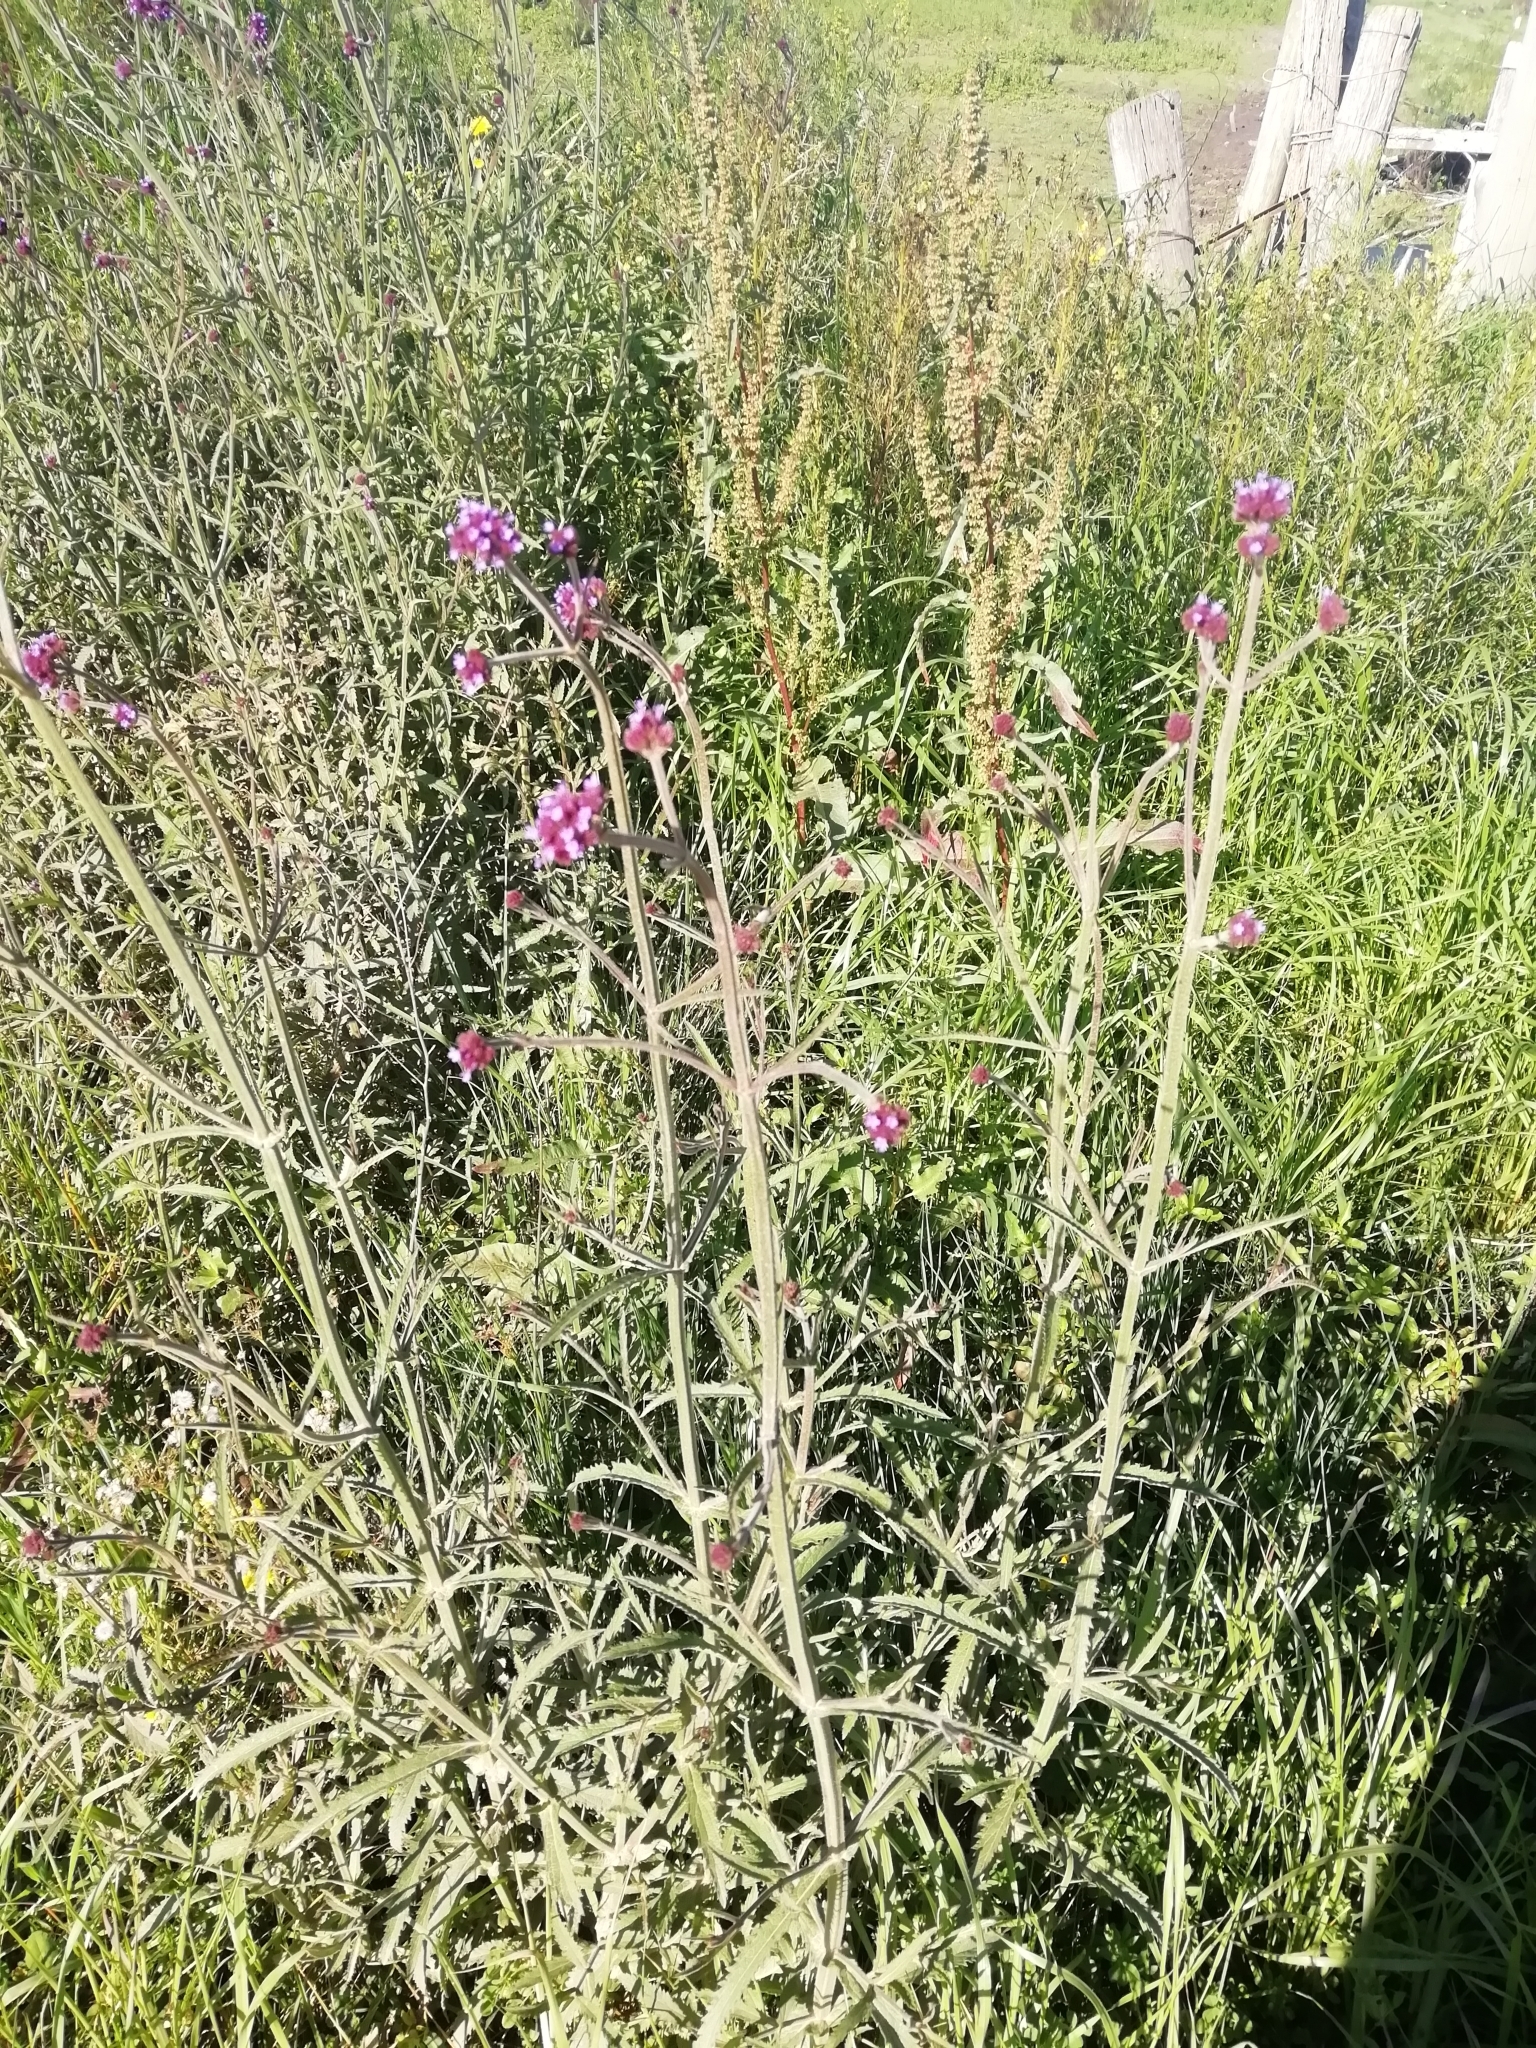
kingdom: Plantae
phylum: Tracheophyta
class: Magnoliopsida
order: Lamiales
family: Verbenaceae
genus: Verbena
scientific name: Verbena bonariensis
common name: Purpletop vervain
